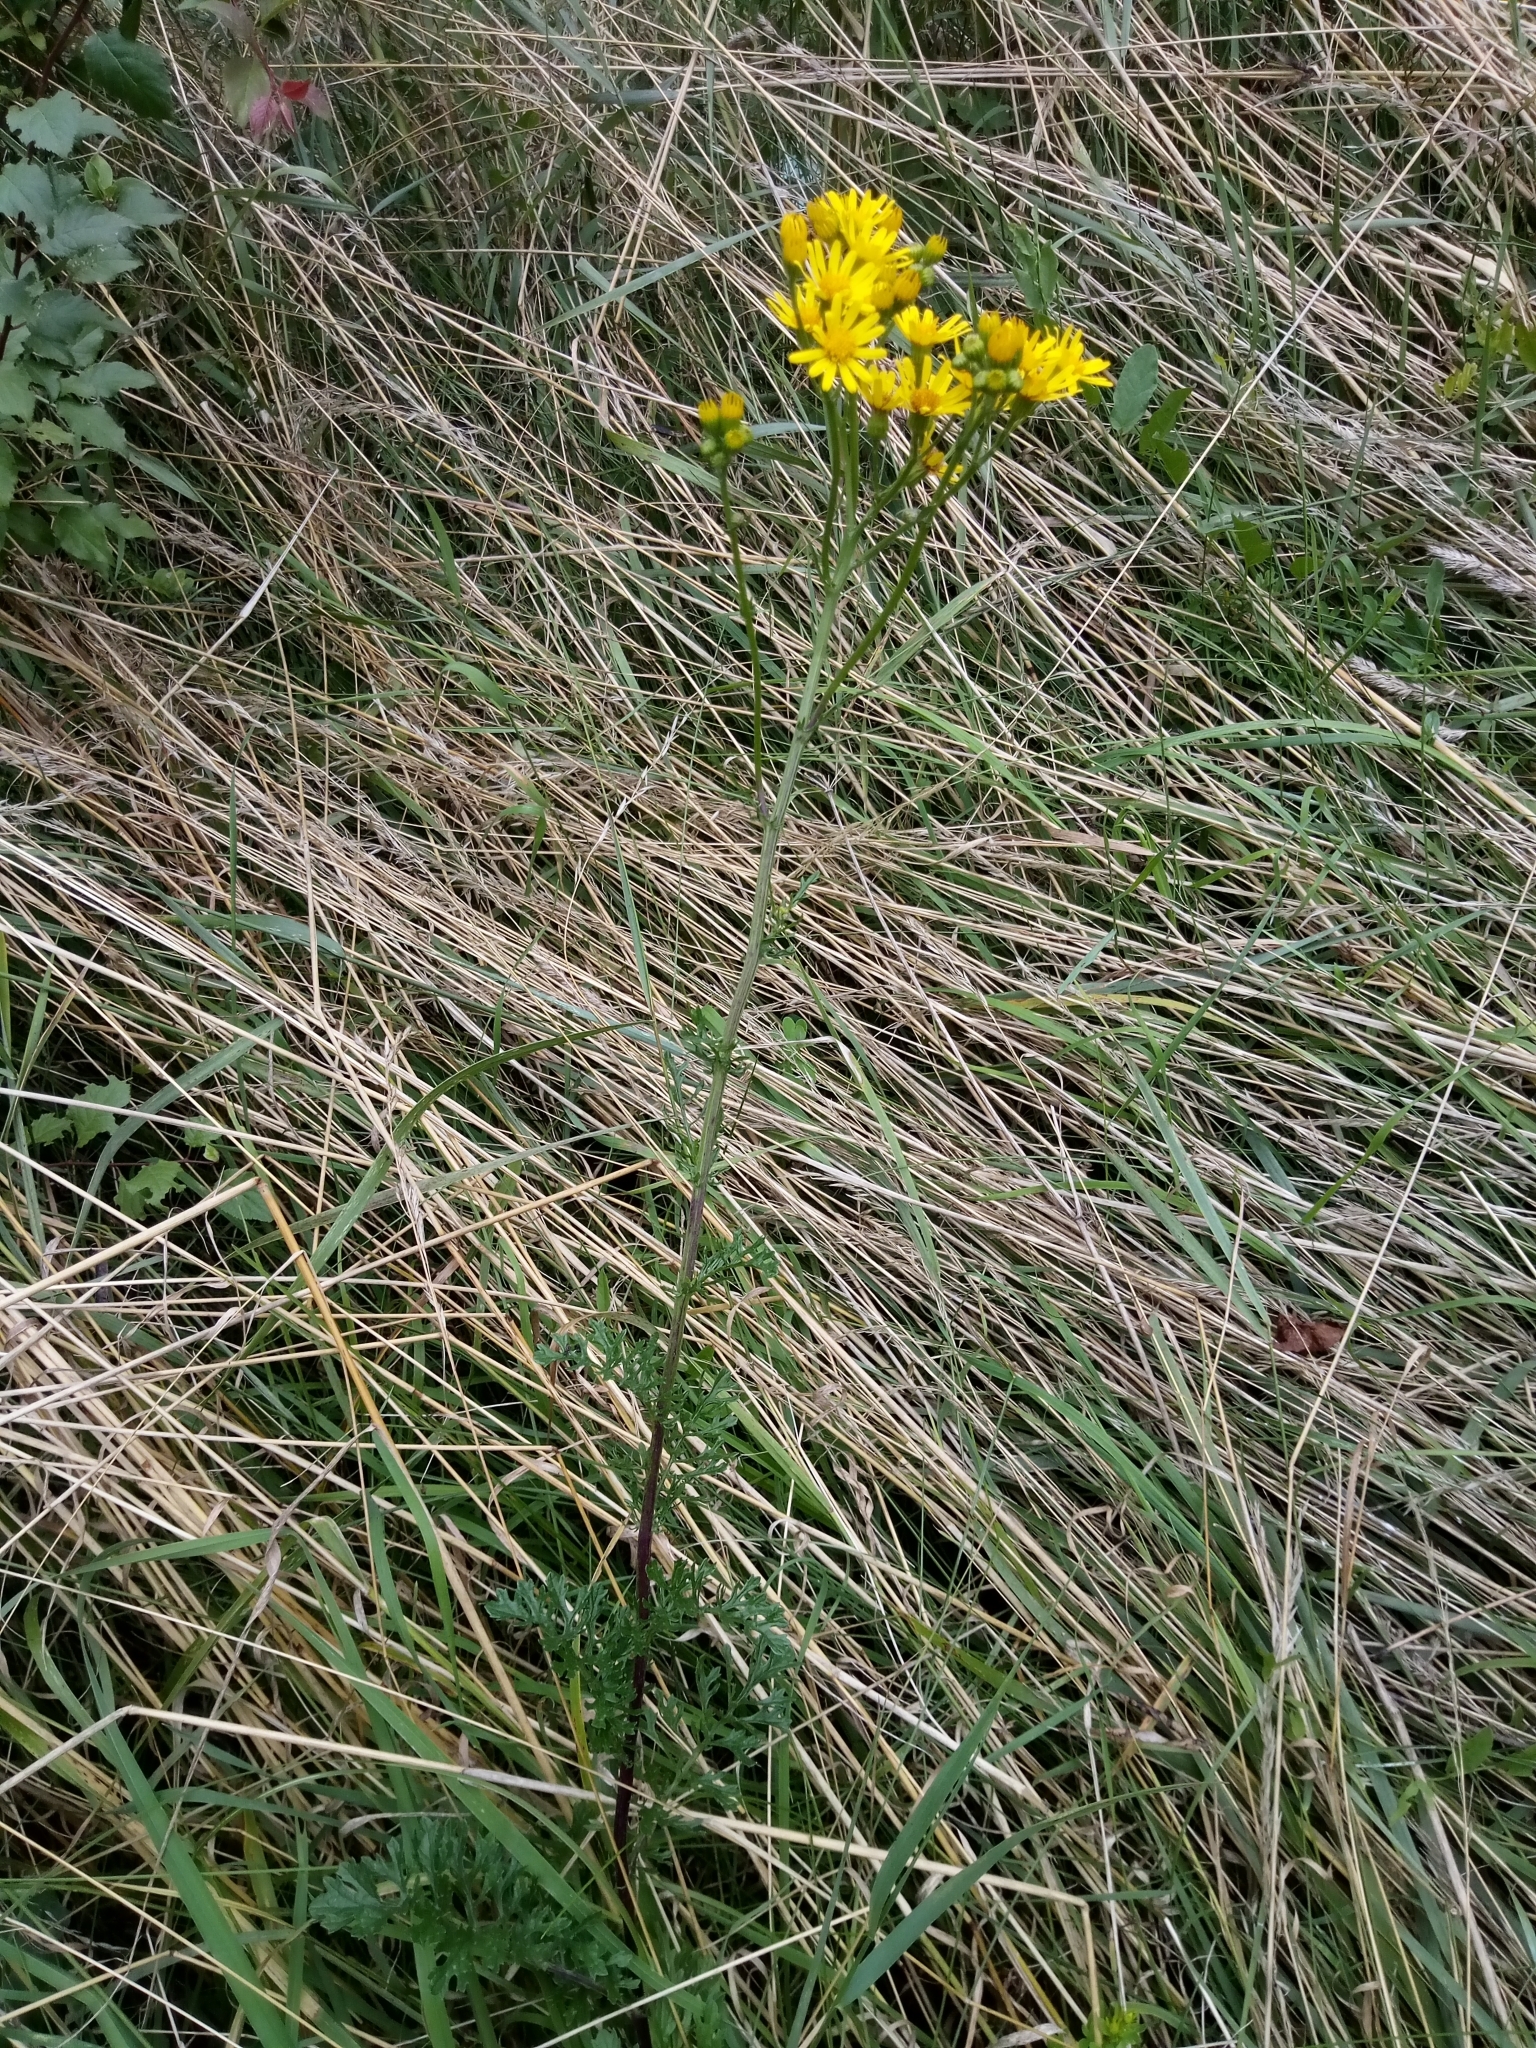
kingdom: Plantae
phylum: Tracheophyta
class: Magnoliopsida
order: Asterales
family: Asteraceae
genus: Jacobaea
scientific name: Jacobaea vulgaris
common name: Stinking willie
